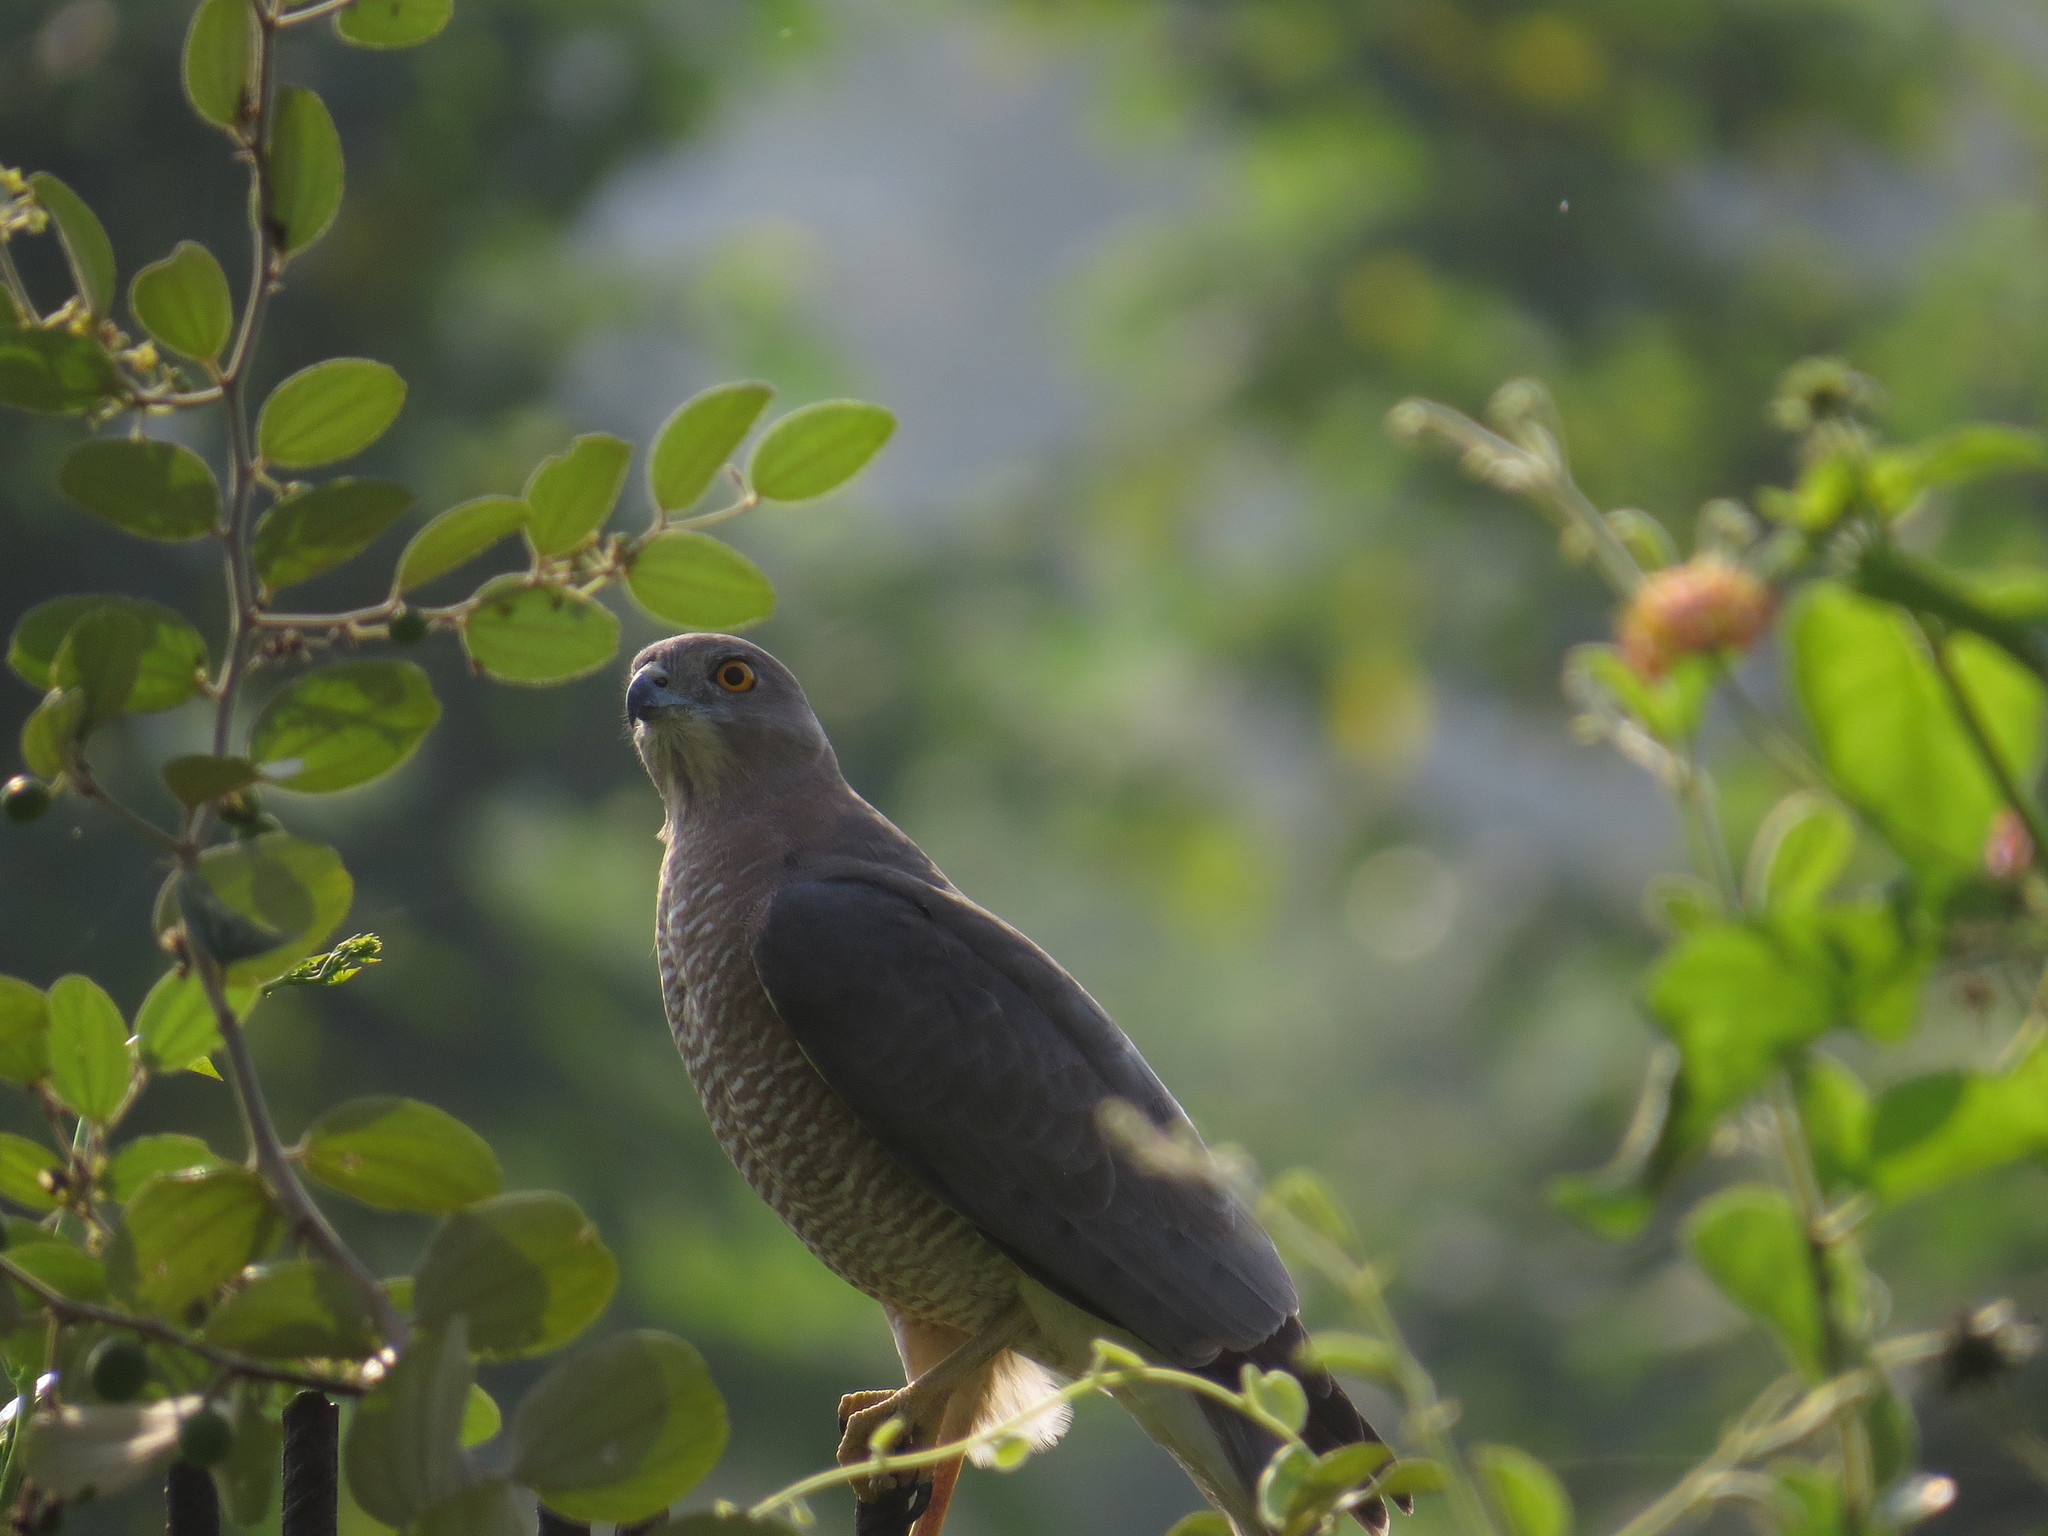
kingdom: Animalia
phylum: Chordata
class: Aves
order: Accipitriformes
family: Accipitridae
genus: Accipiter
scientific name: Accipiter badius
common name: Shikra
